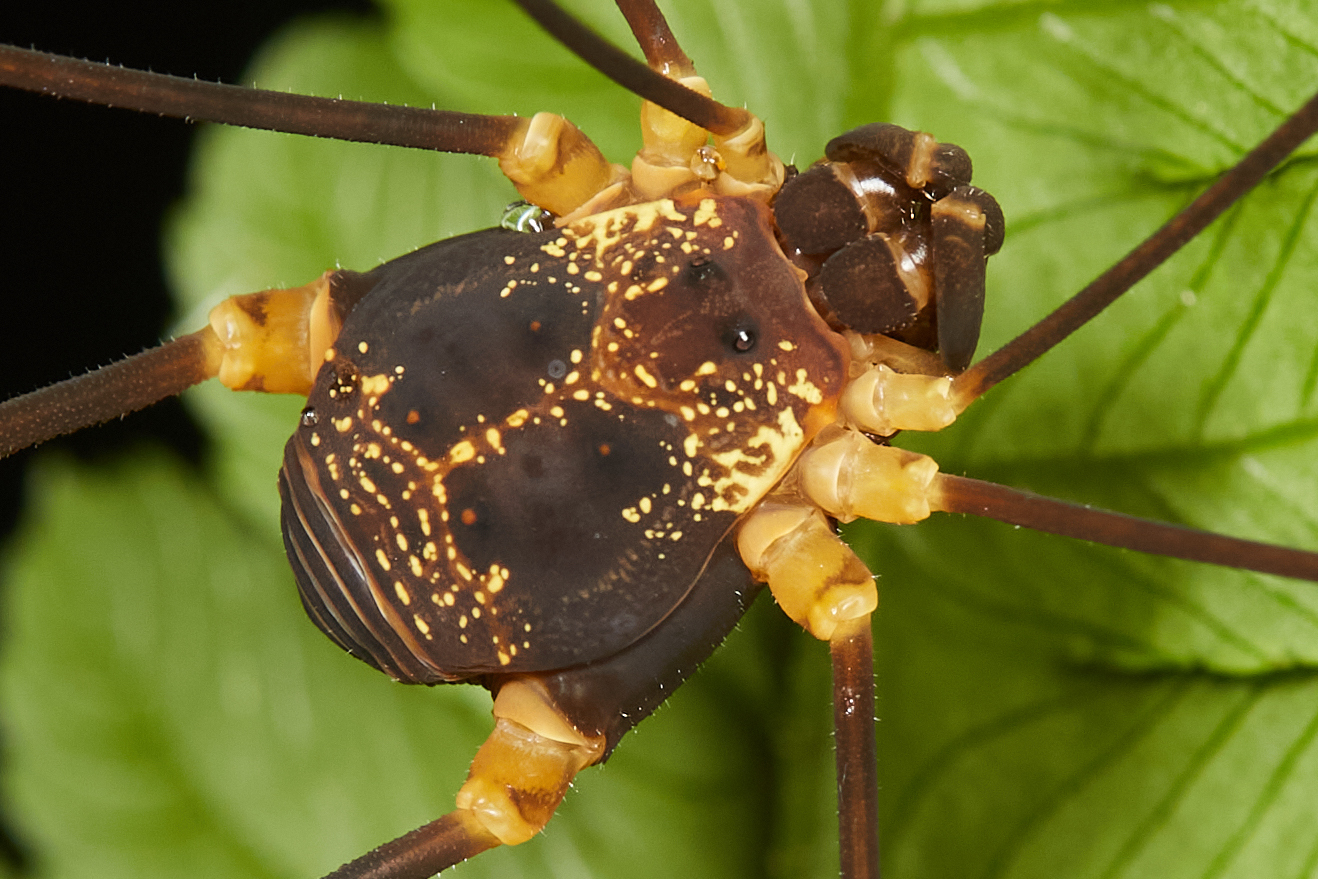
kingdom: Animalia
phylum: Arthropoda
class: Arachnida
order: Opiliones
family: Cosmetidae
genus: Eupoecilaema
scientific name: Eupoecilaema magnum
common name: Harvestmen
